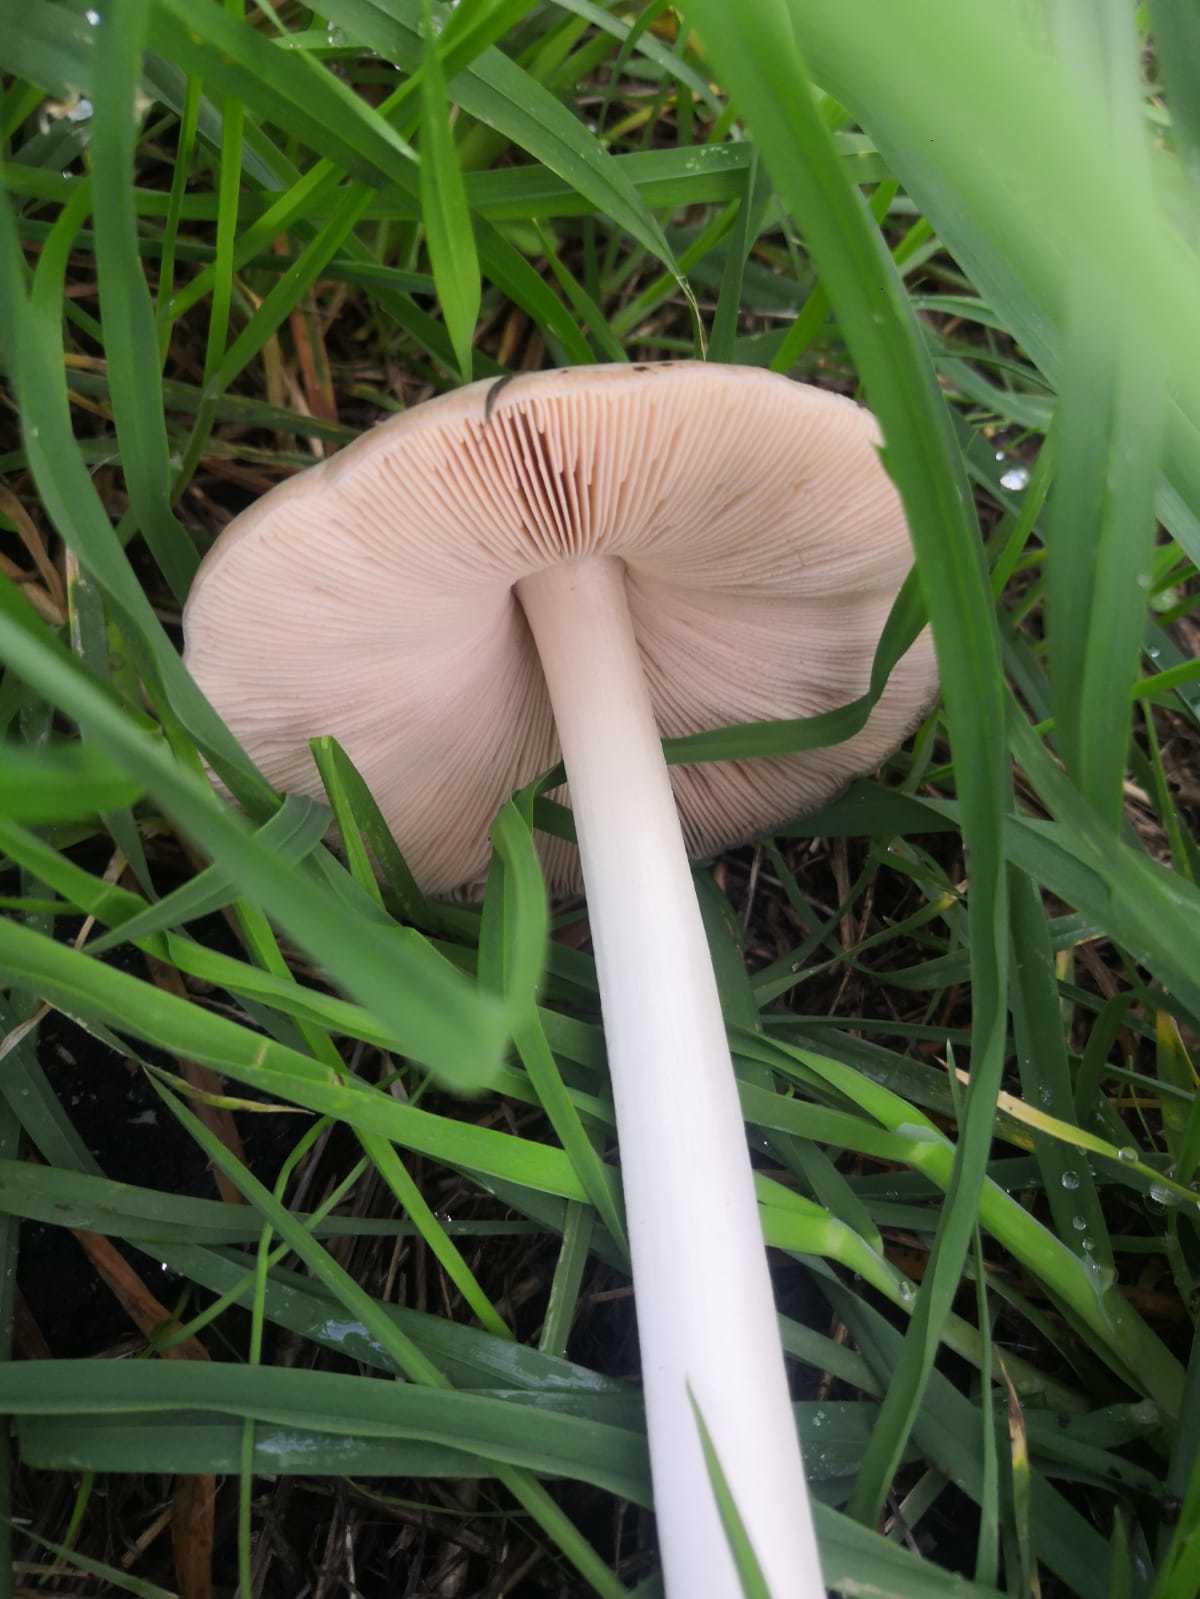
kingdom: Fungi
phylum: Basidiomycota
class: Agaricomycetes
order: Agaricales
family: Pluteaceae
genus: Volvopluteus
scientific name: Volvopluteus gloiocephalus
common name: Stubble rosegill
